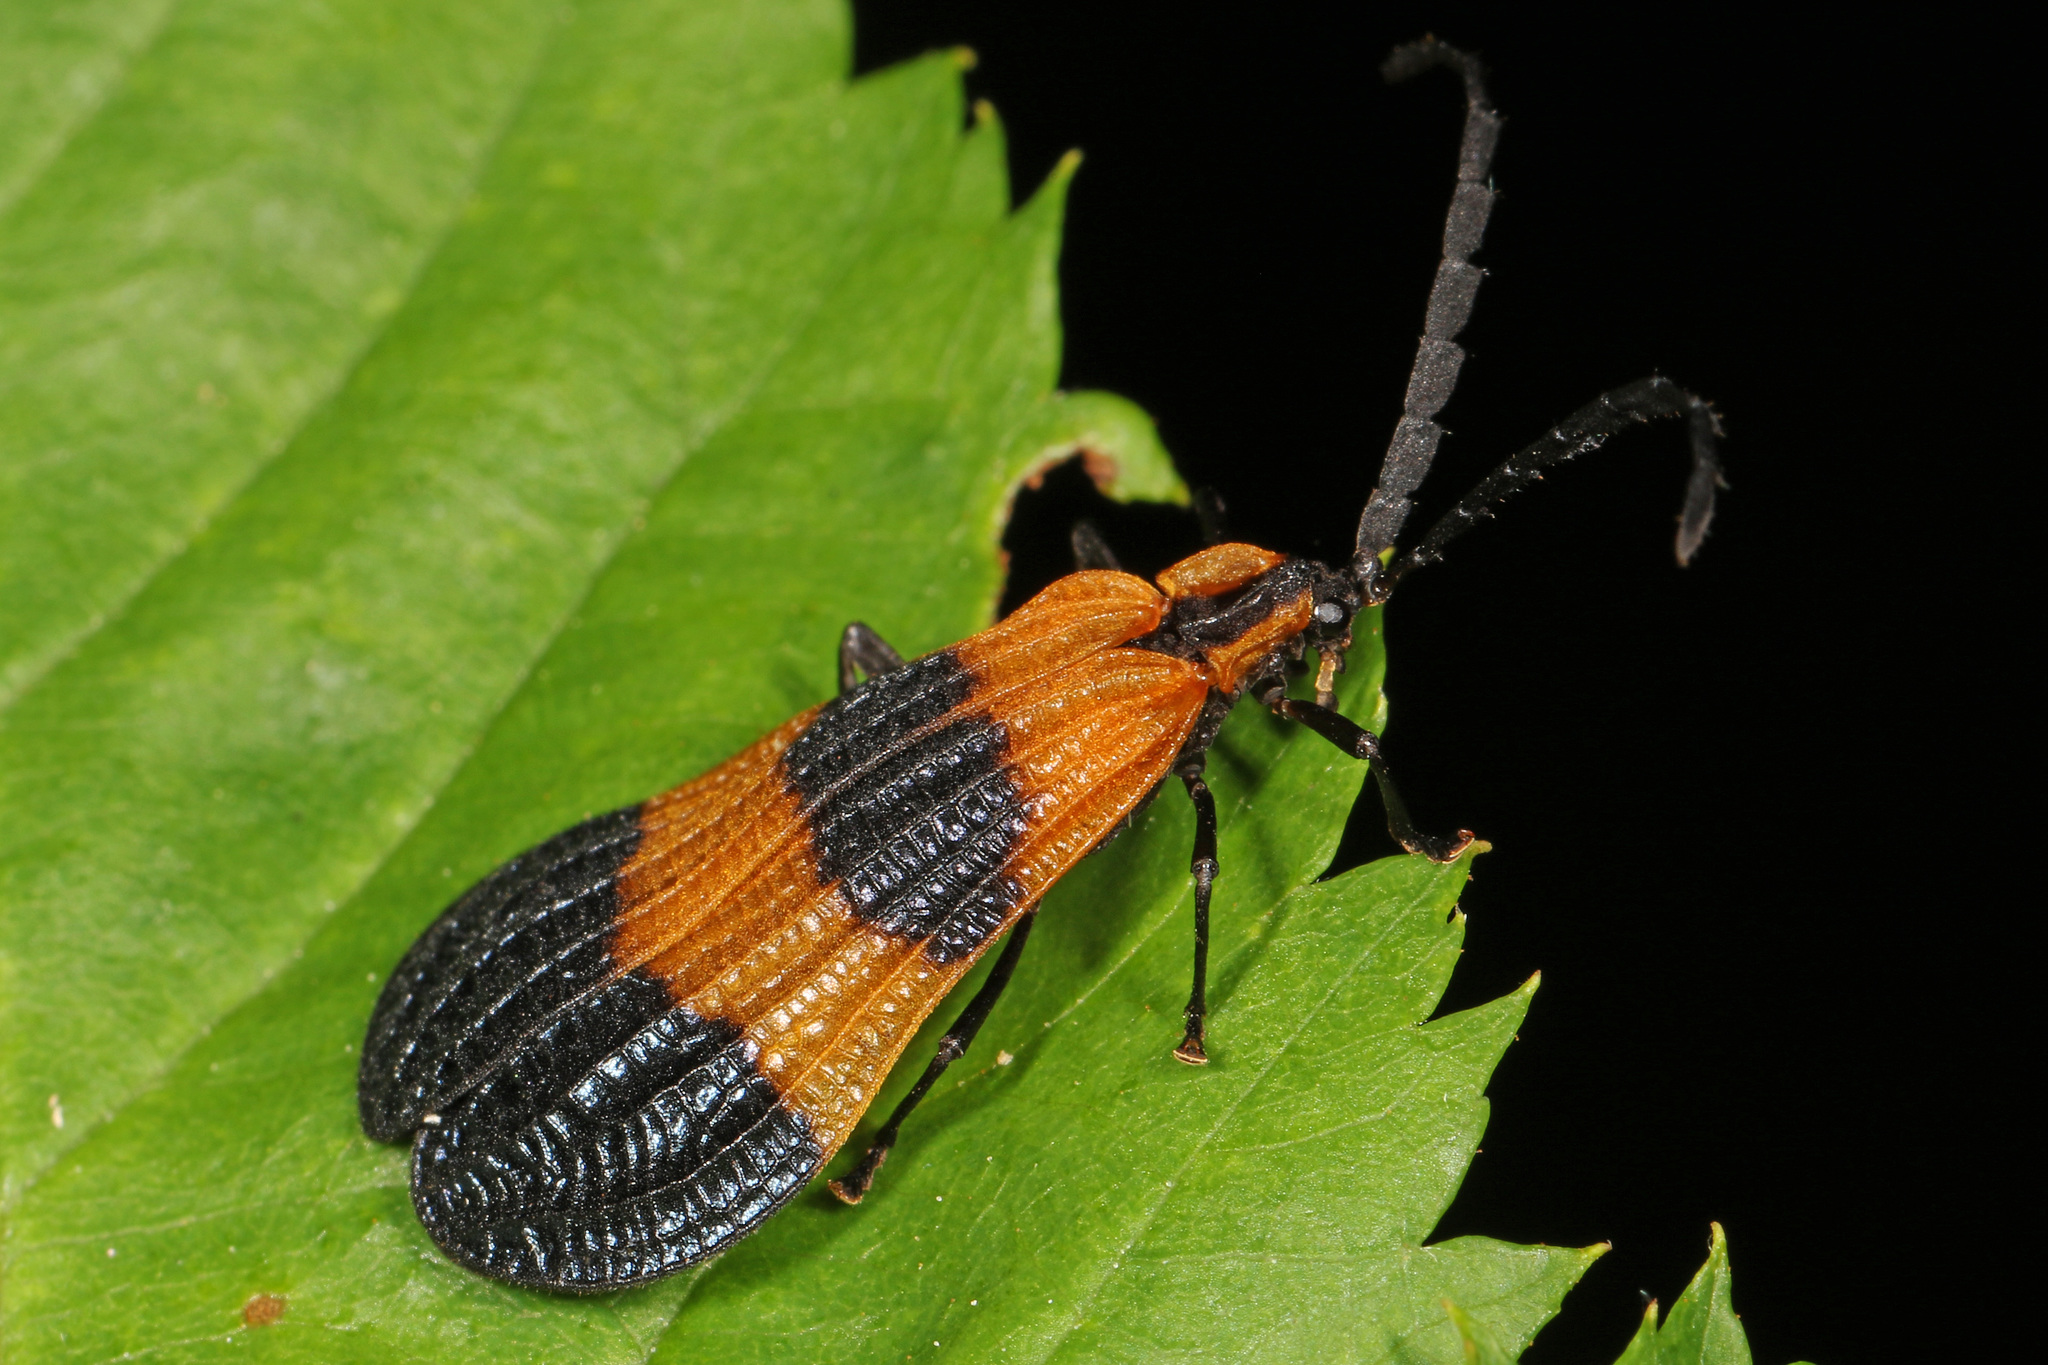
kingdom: Animalia
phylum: Arthropoda
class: Insecta
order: Coleoptera
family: Lycidae
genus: Calopteron
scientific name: Calopteron terminale
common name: End band net-winged beetle
